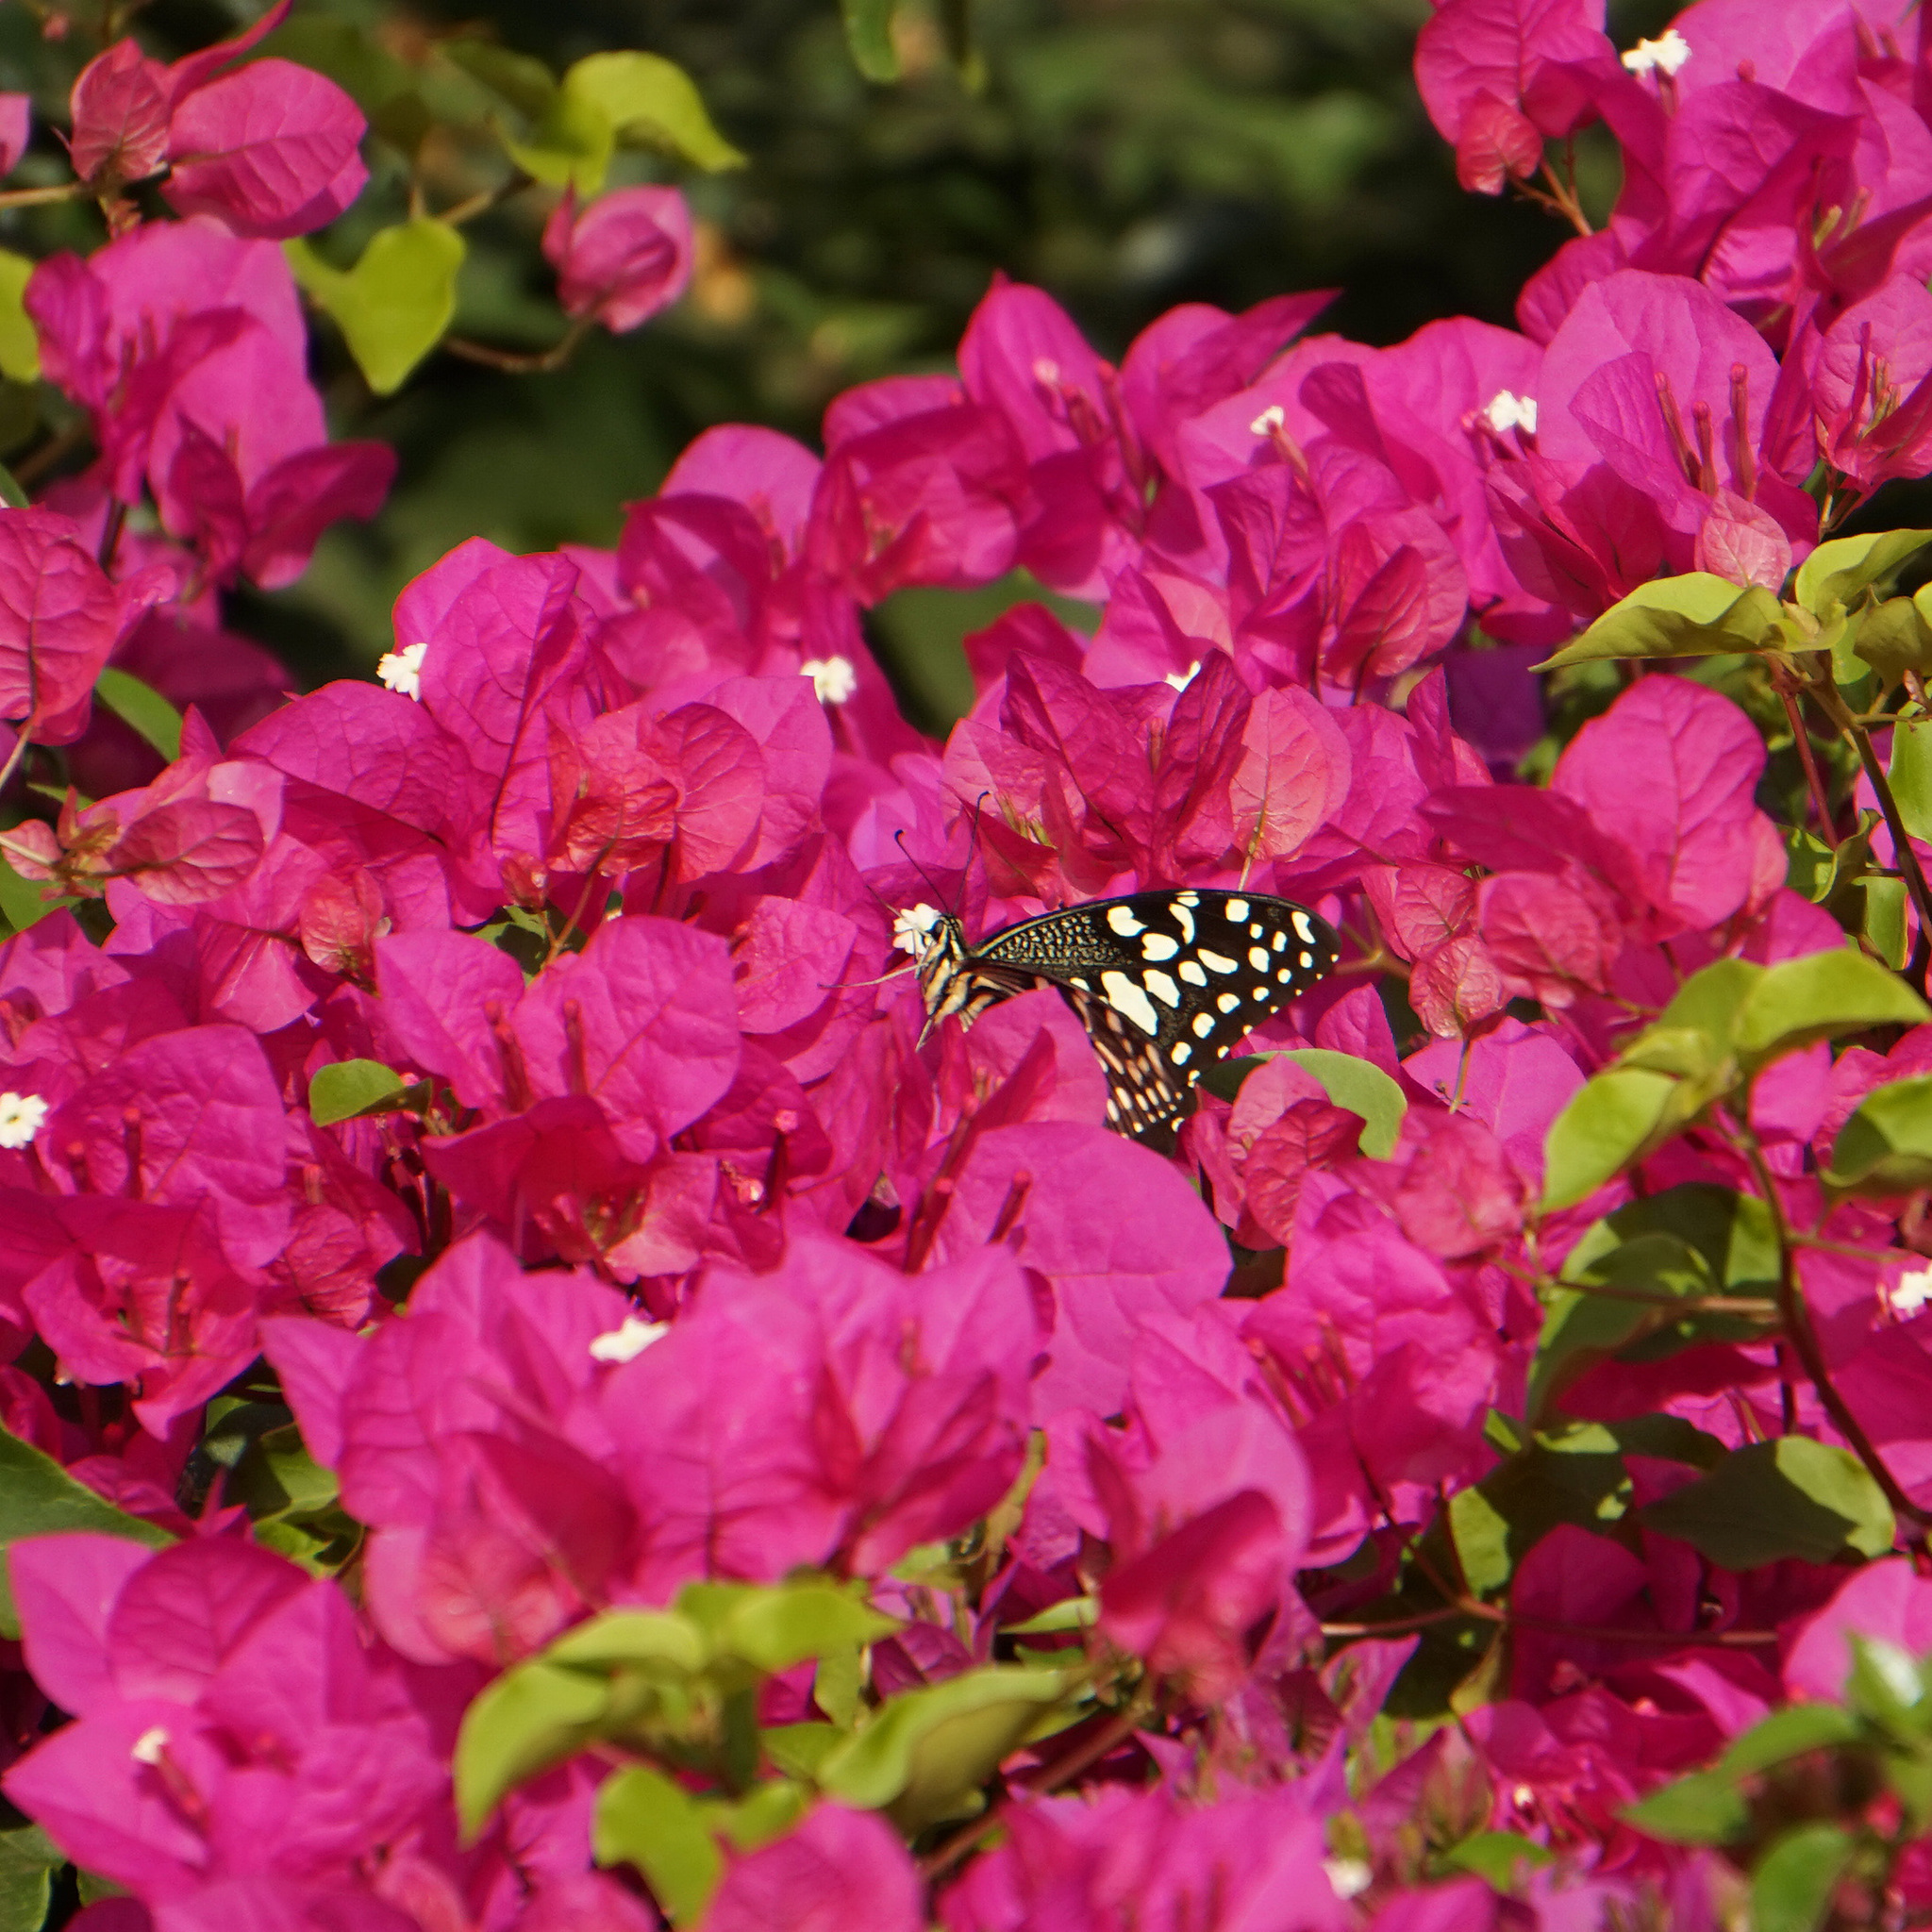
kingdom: Animalia
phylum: Arthropoda
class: Insecta
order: Lepidoptera
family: Papilionidae
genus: Papilio
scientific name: Papilio demodocus
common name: Christmas butterfly
